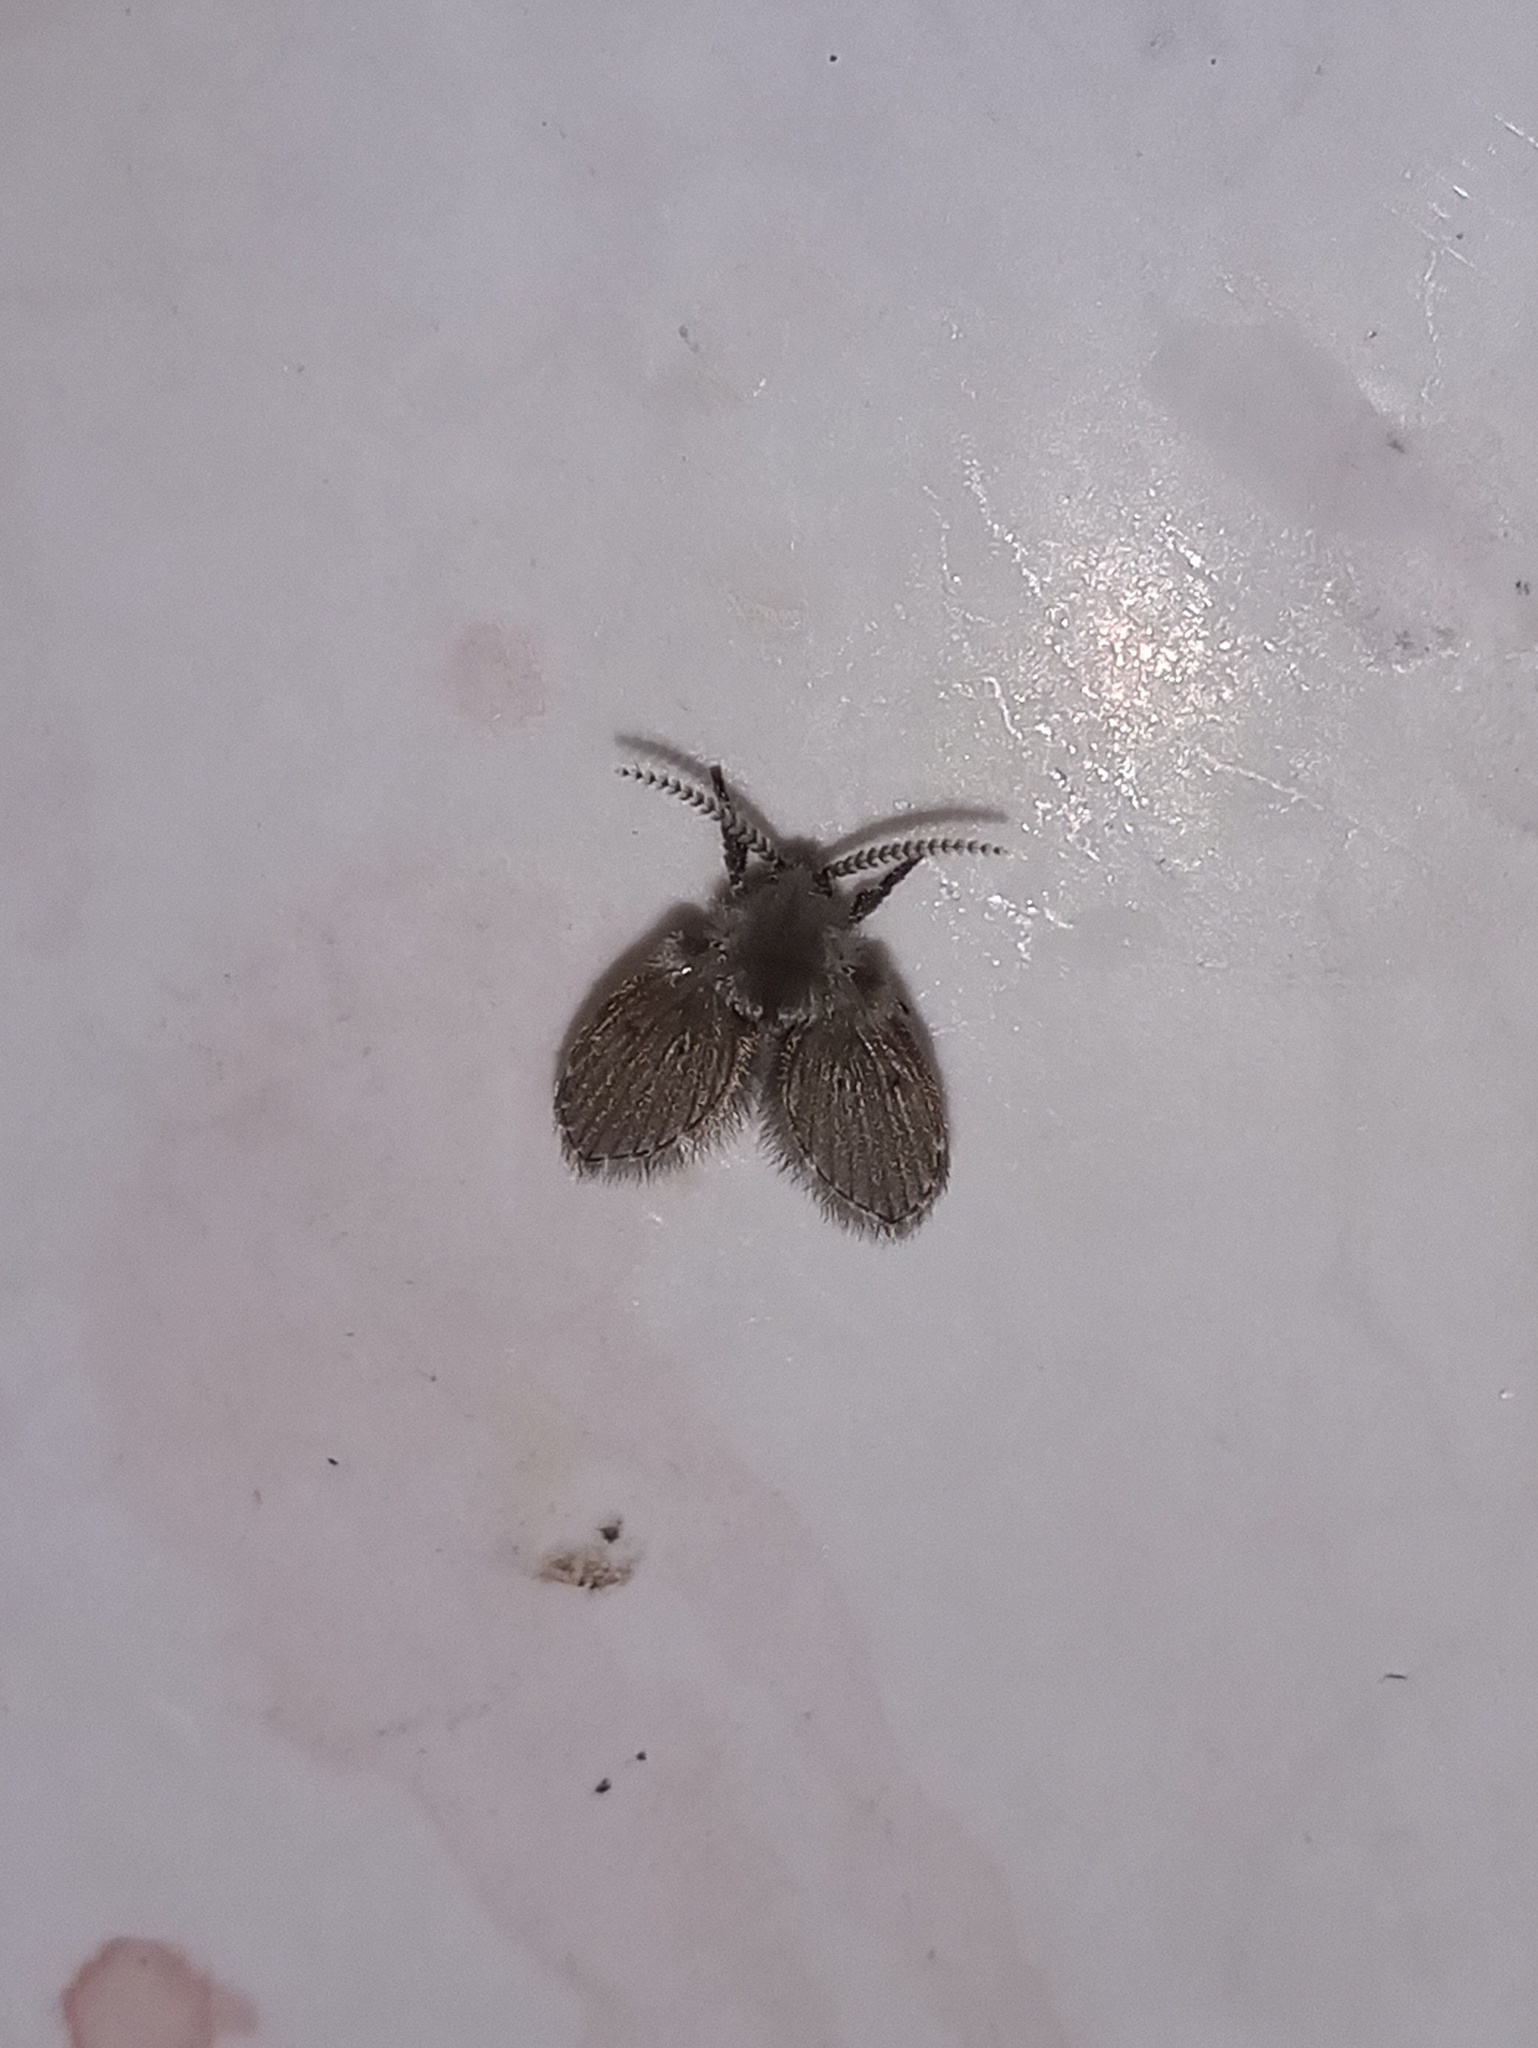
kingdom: Animalia
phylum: Arthropoda
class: Insecta
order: Diptera
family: Psychodidae
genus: Clogmia
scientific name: Clogmia albipunctatus
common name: White-spotted moth fly
